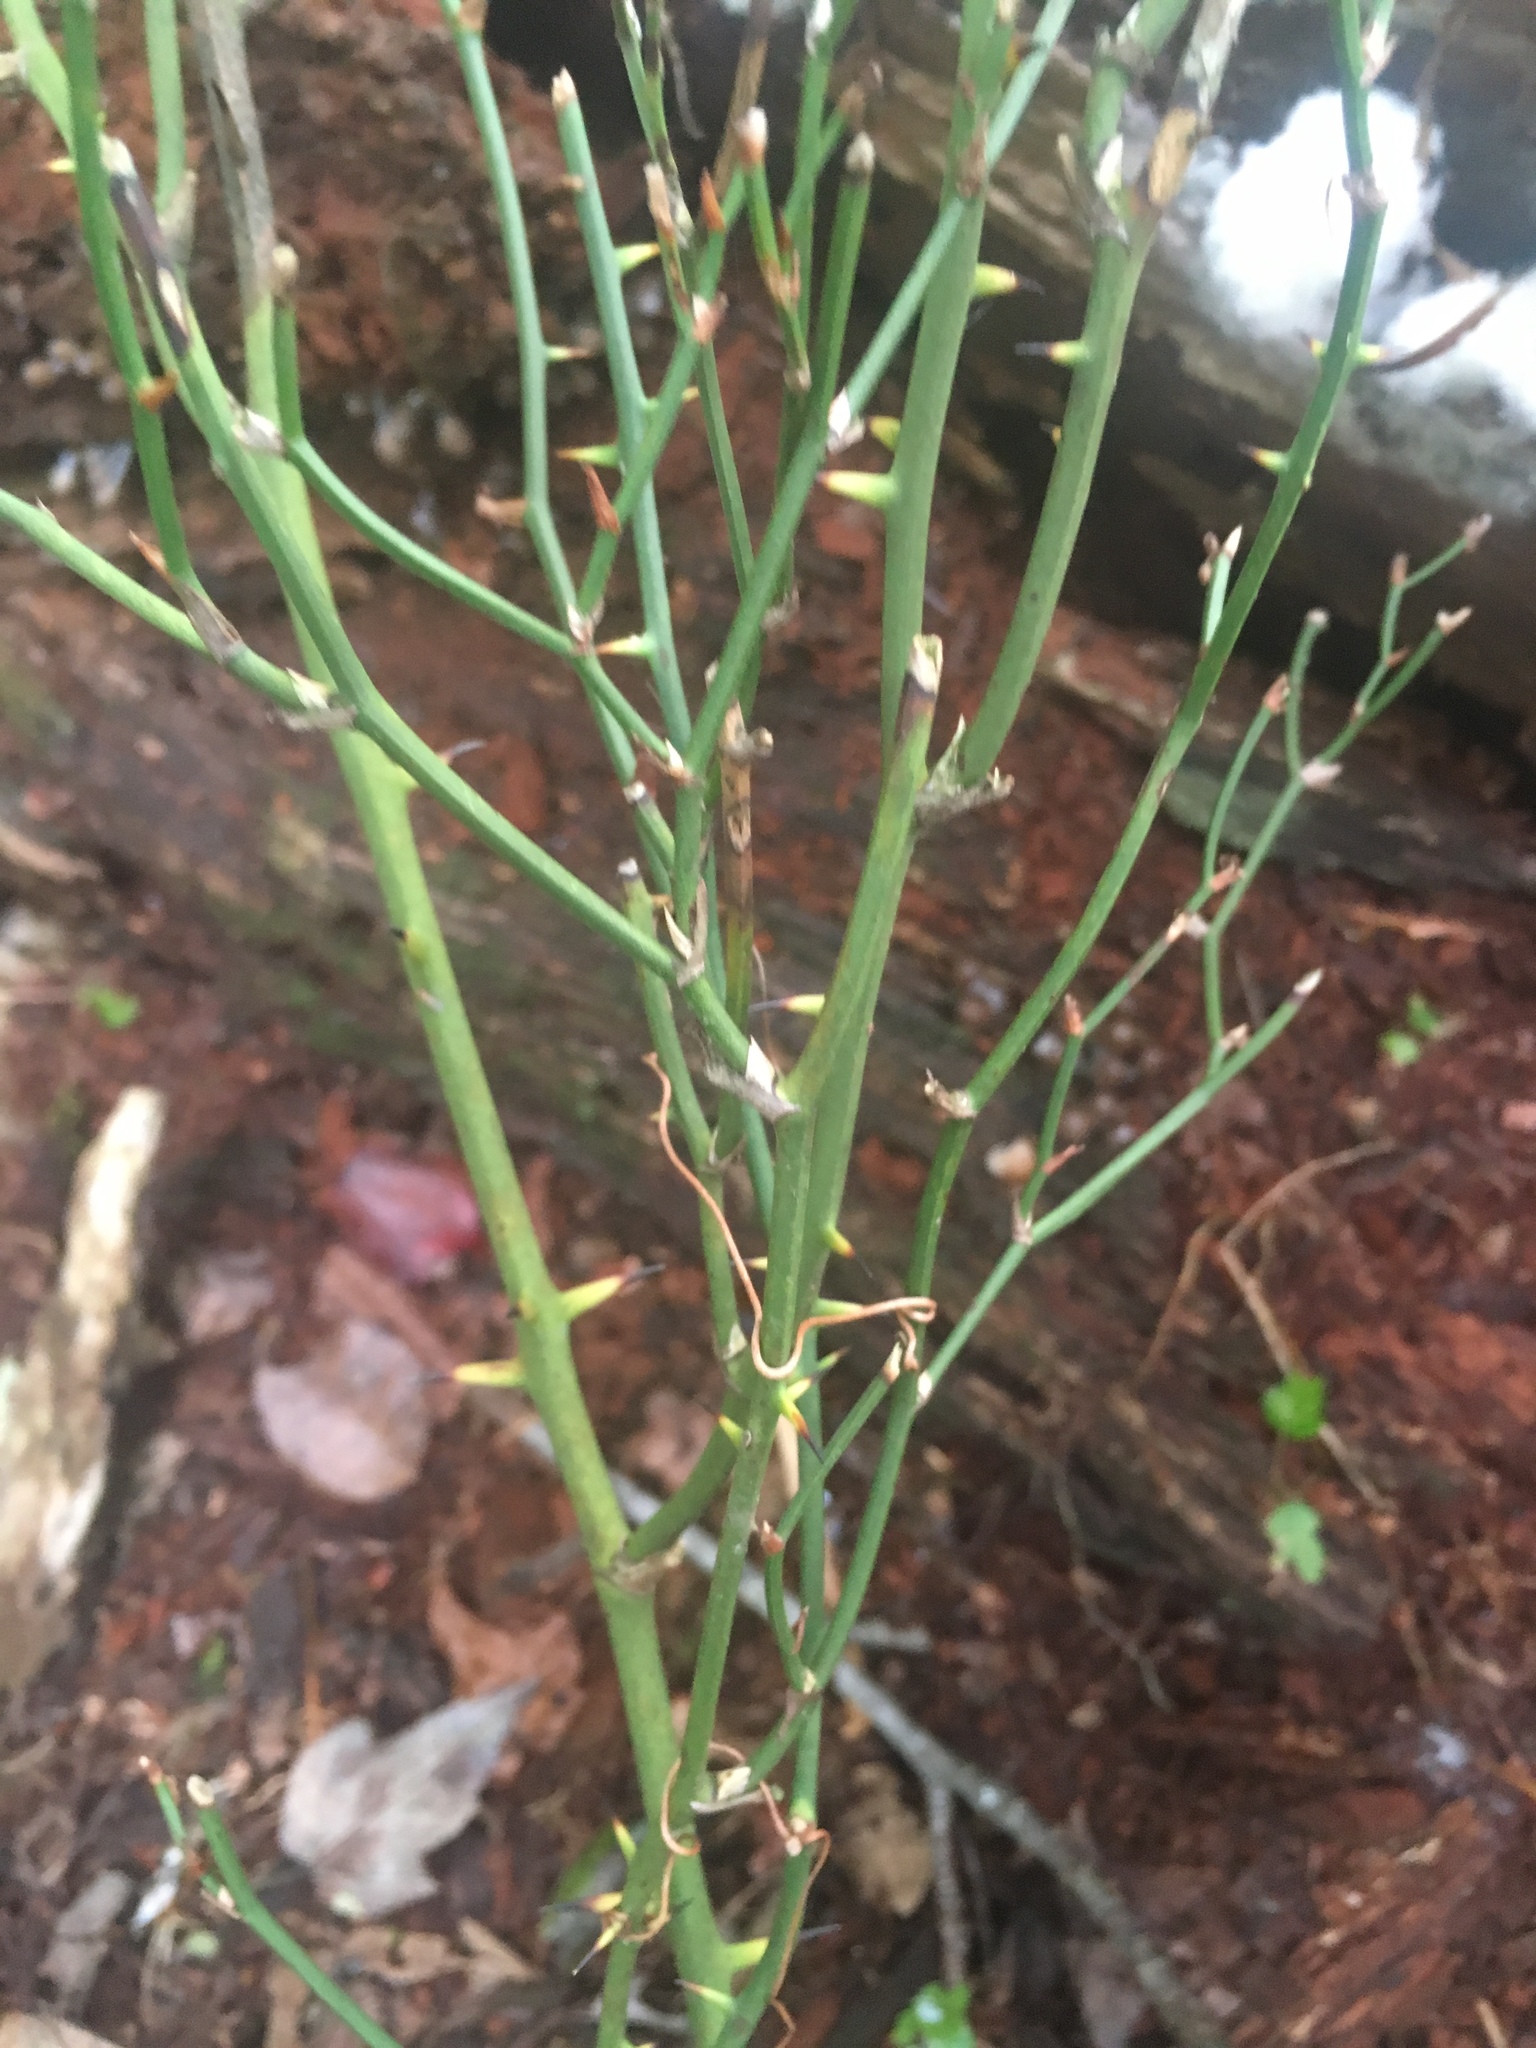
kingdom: Plantae
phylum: Tracheophyta
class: Liliopsida
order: Liliales
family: Smilacaceae
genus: Smilax
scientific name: Smilax rotundifolia
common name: Bullbriar
